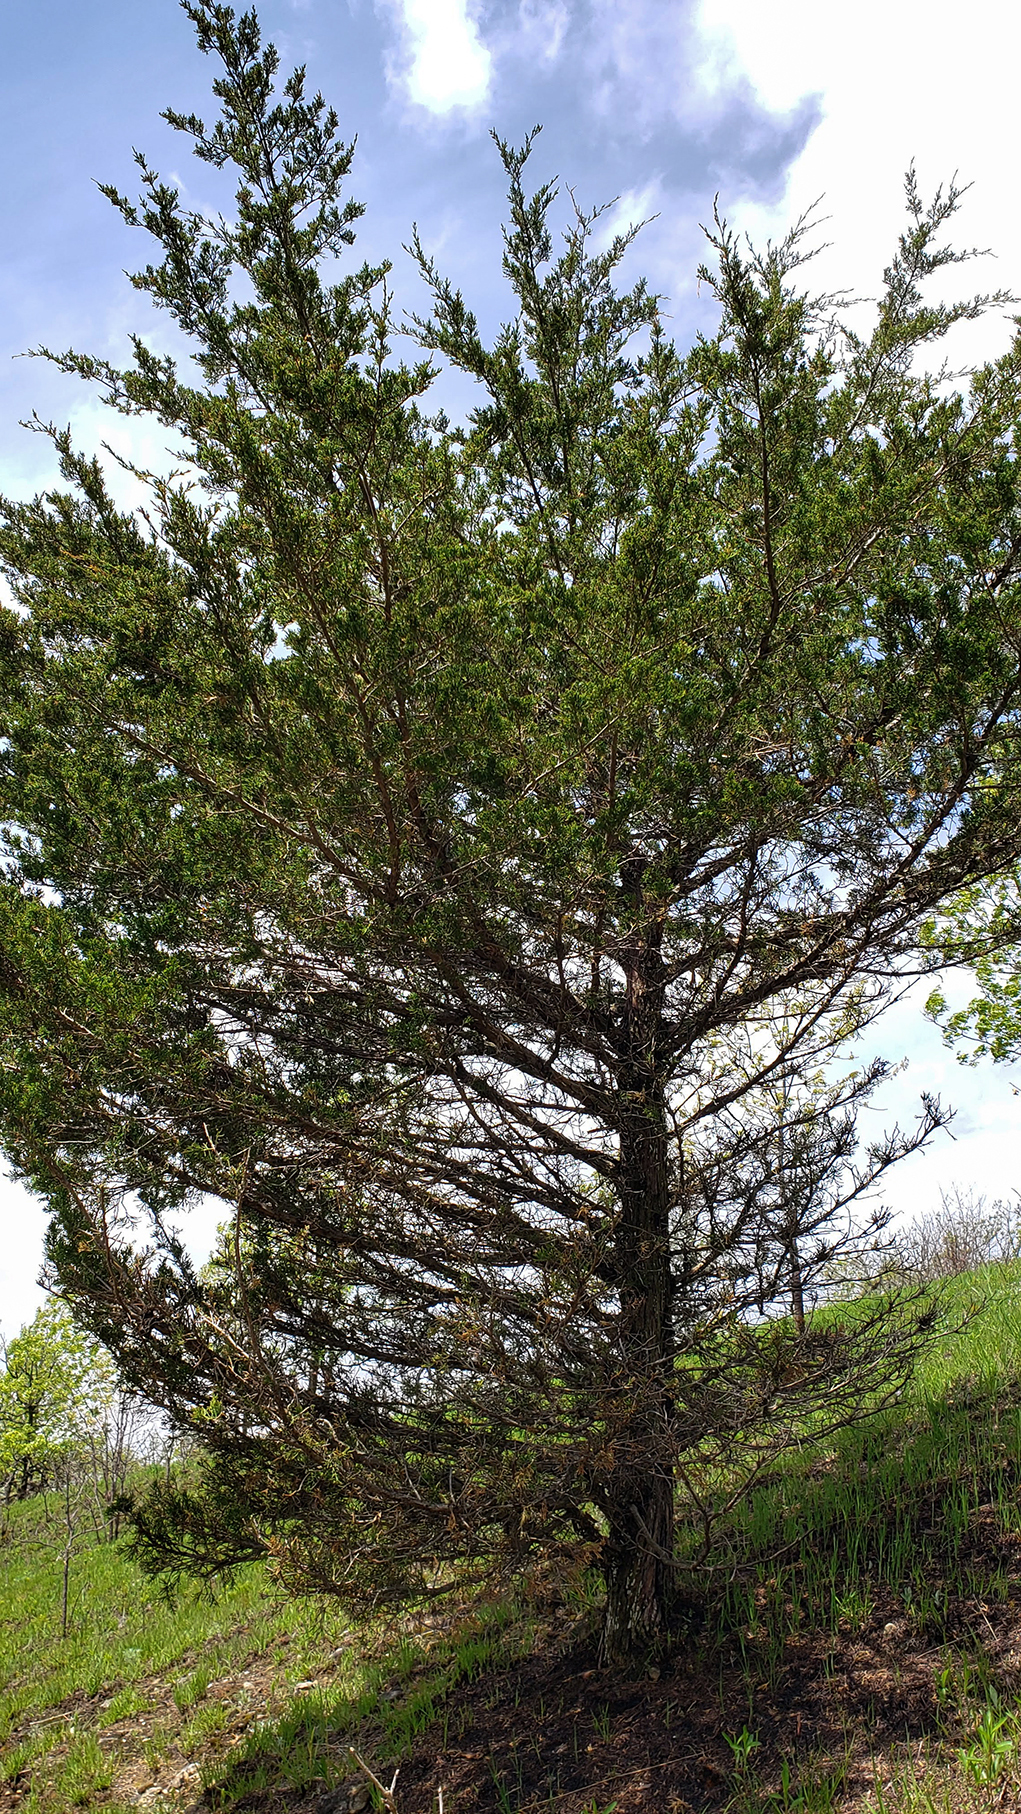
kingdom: Plantae
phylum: Tracheophyta
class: Pinopsida
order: Pinales
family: Cupressaceae
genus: Juniperus
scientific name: Juniperus virginiana
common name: Red juniper
